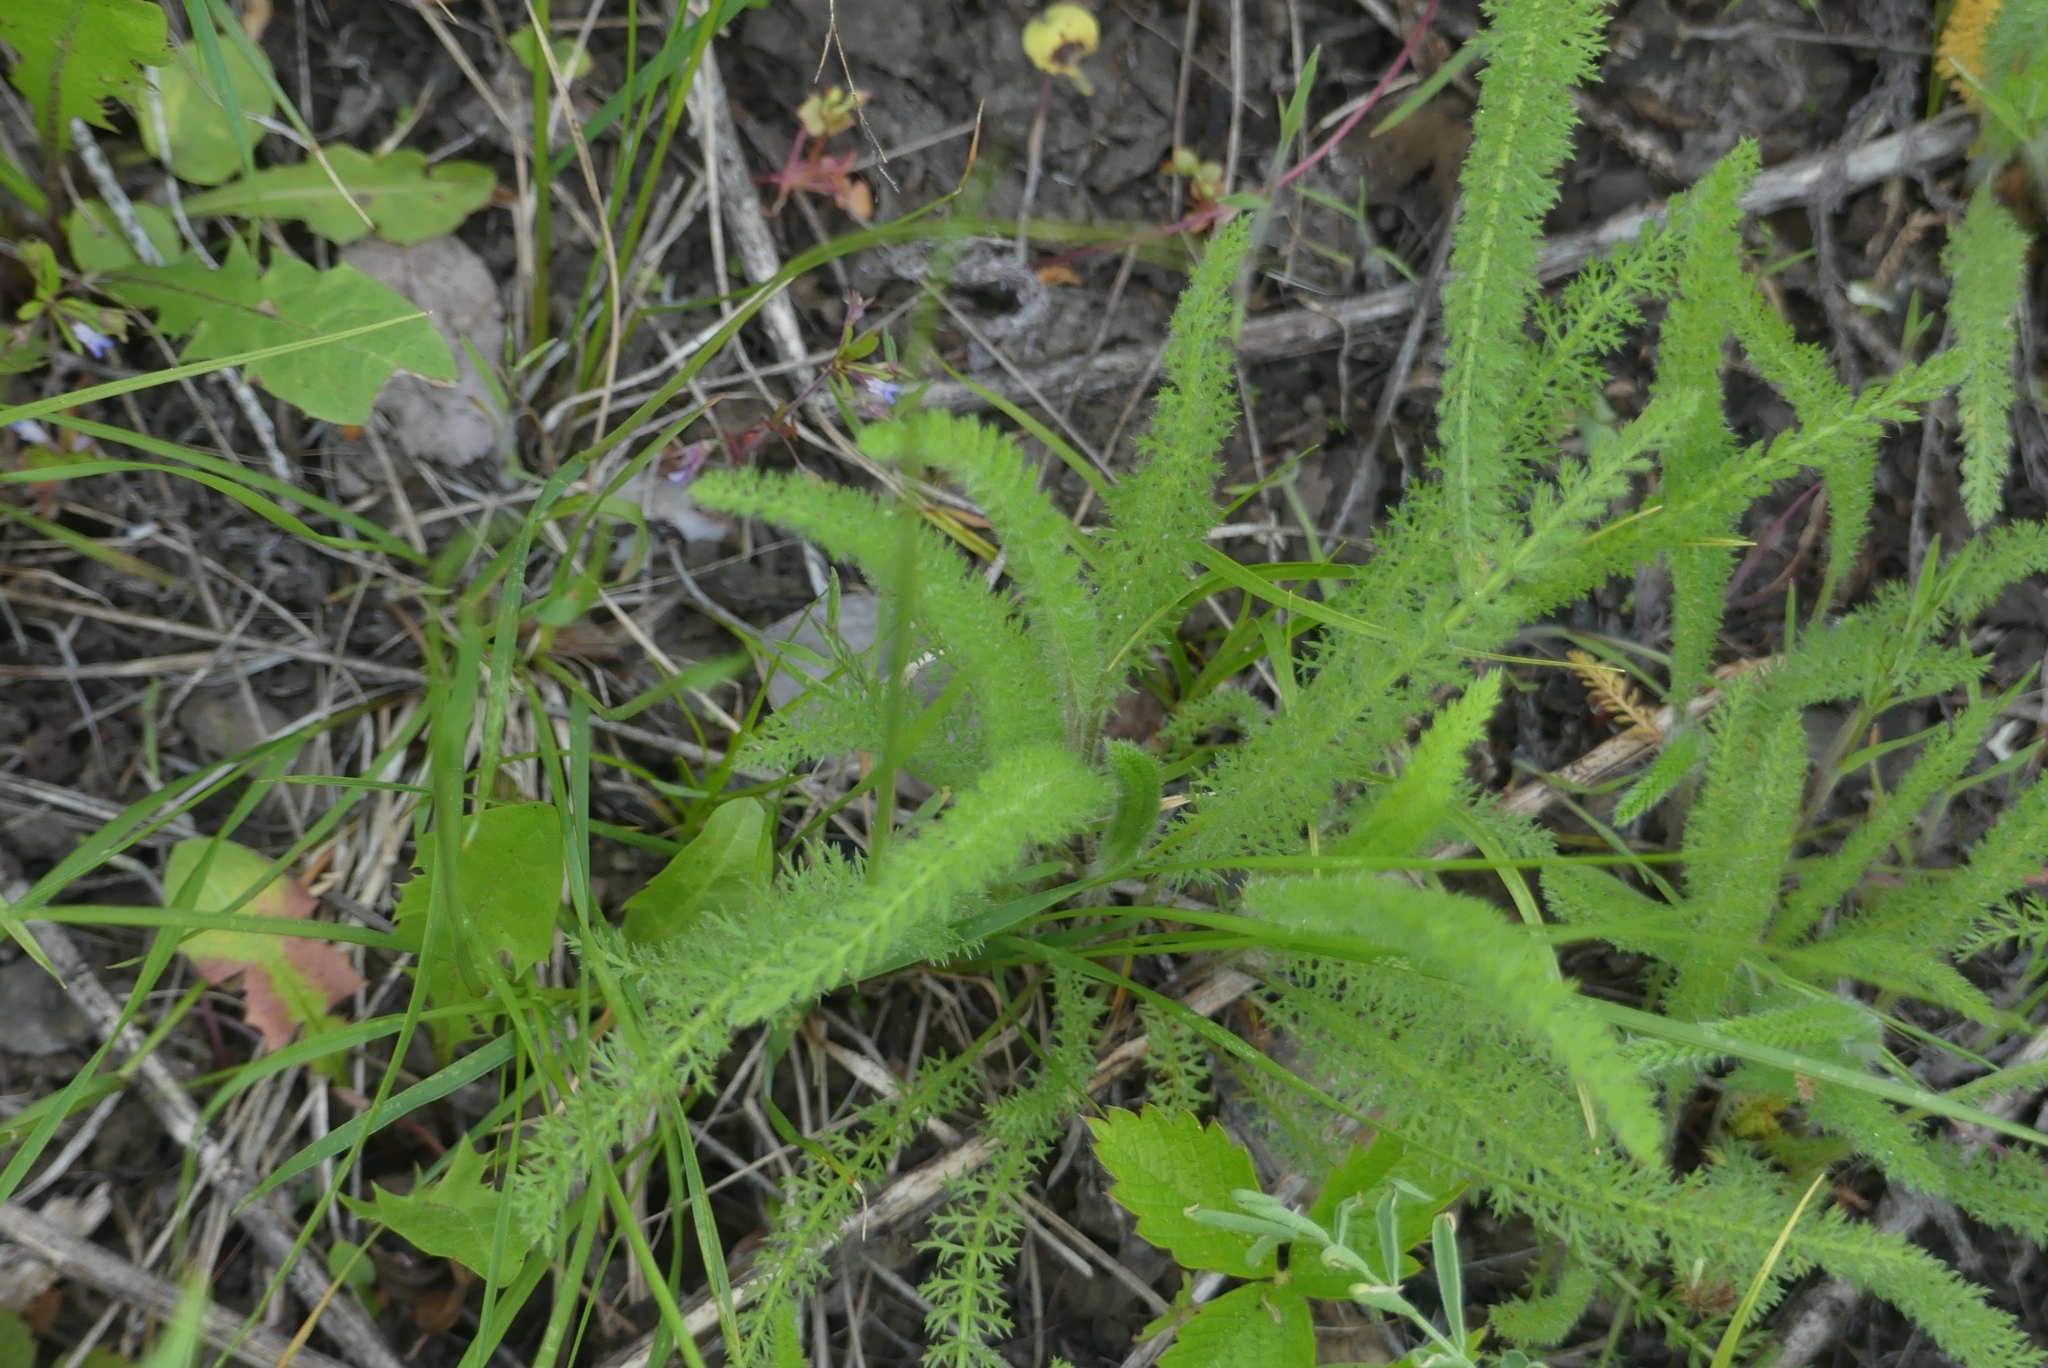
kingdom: Plantae
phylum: Tracheophyta
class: Magnoliopsida
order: Asterales
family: Asteraceae
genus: Achillea
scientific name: Achillea millefolium
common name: Yarrow
